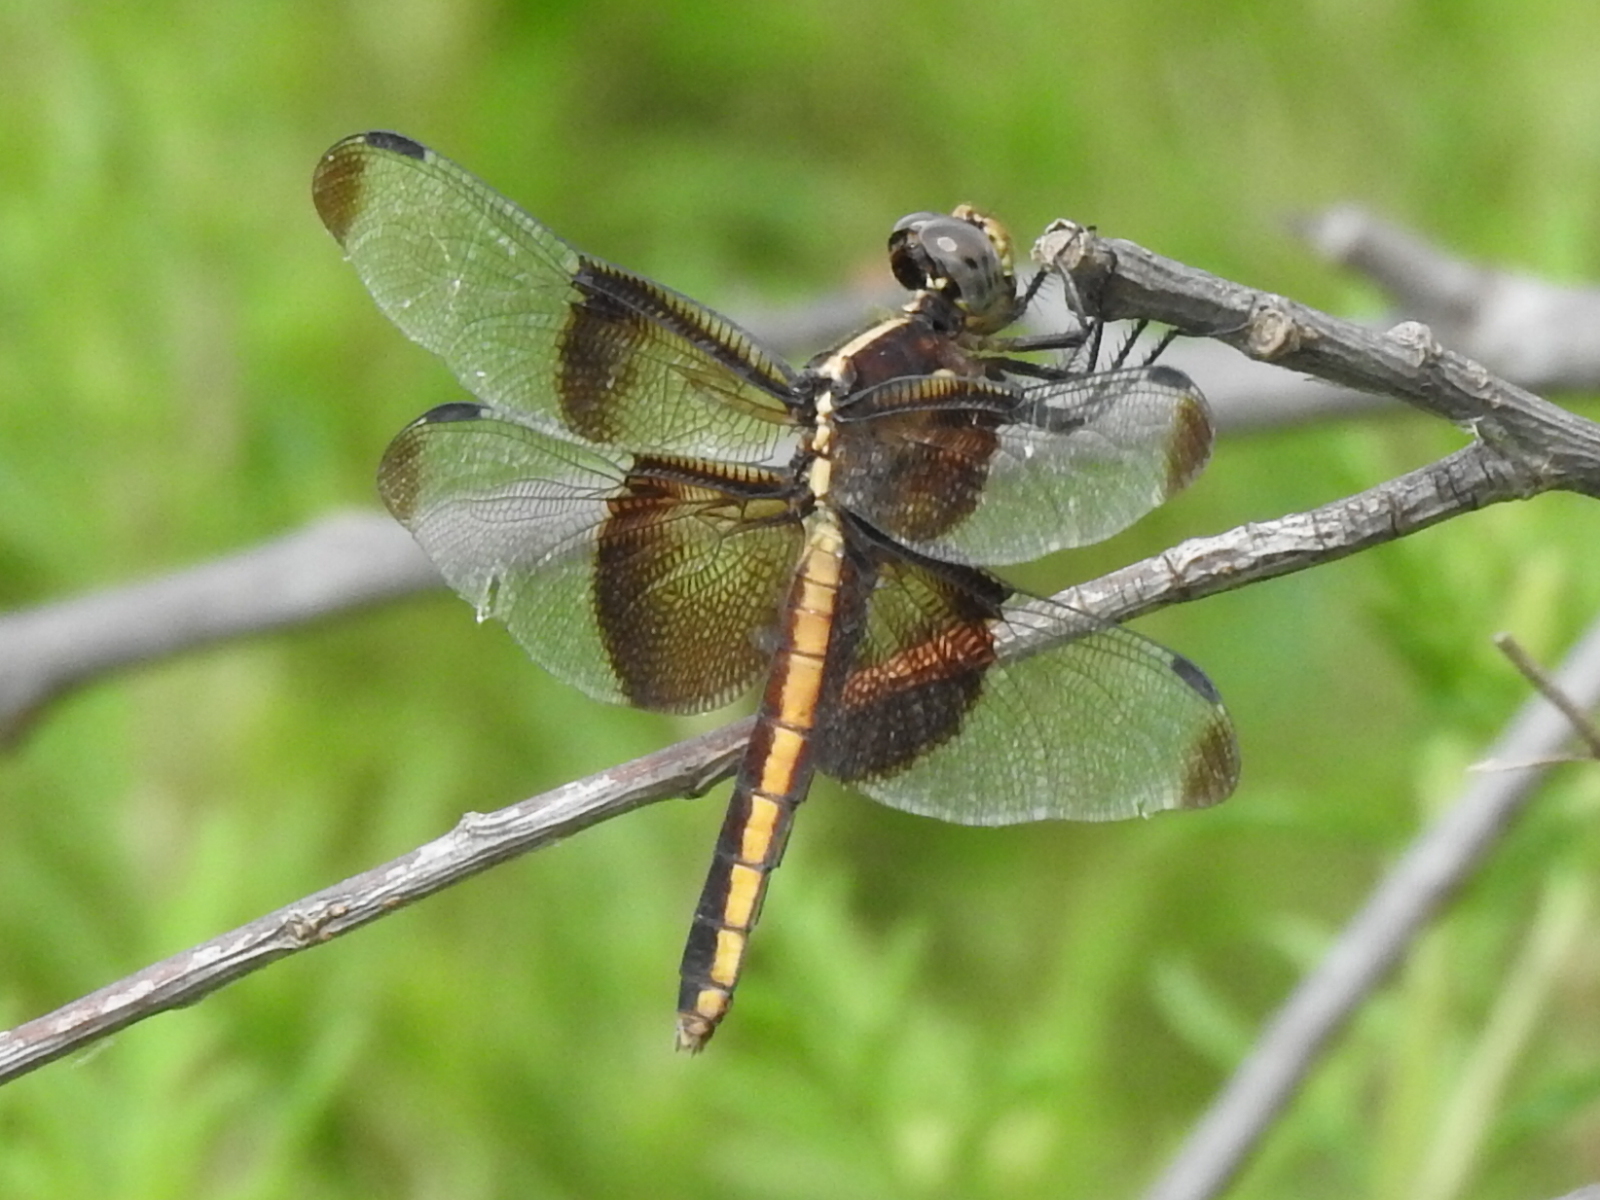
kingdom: Animalia
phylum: Arthropoda
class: Insecta
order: Odonata
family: Libellulidae
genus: Libellula
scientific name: Libellula luctuosa
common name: Widow skimmer
